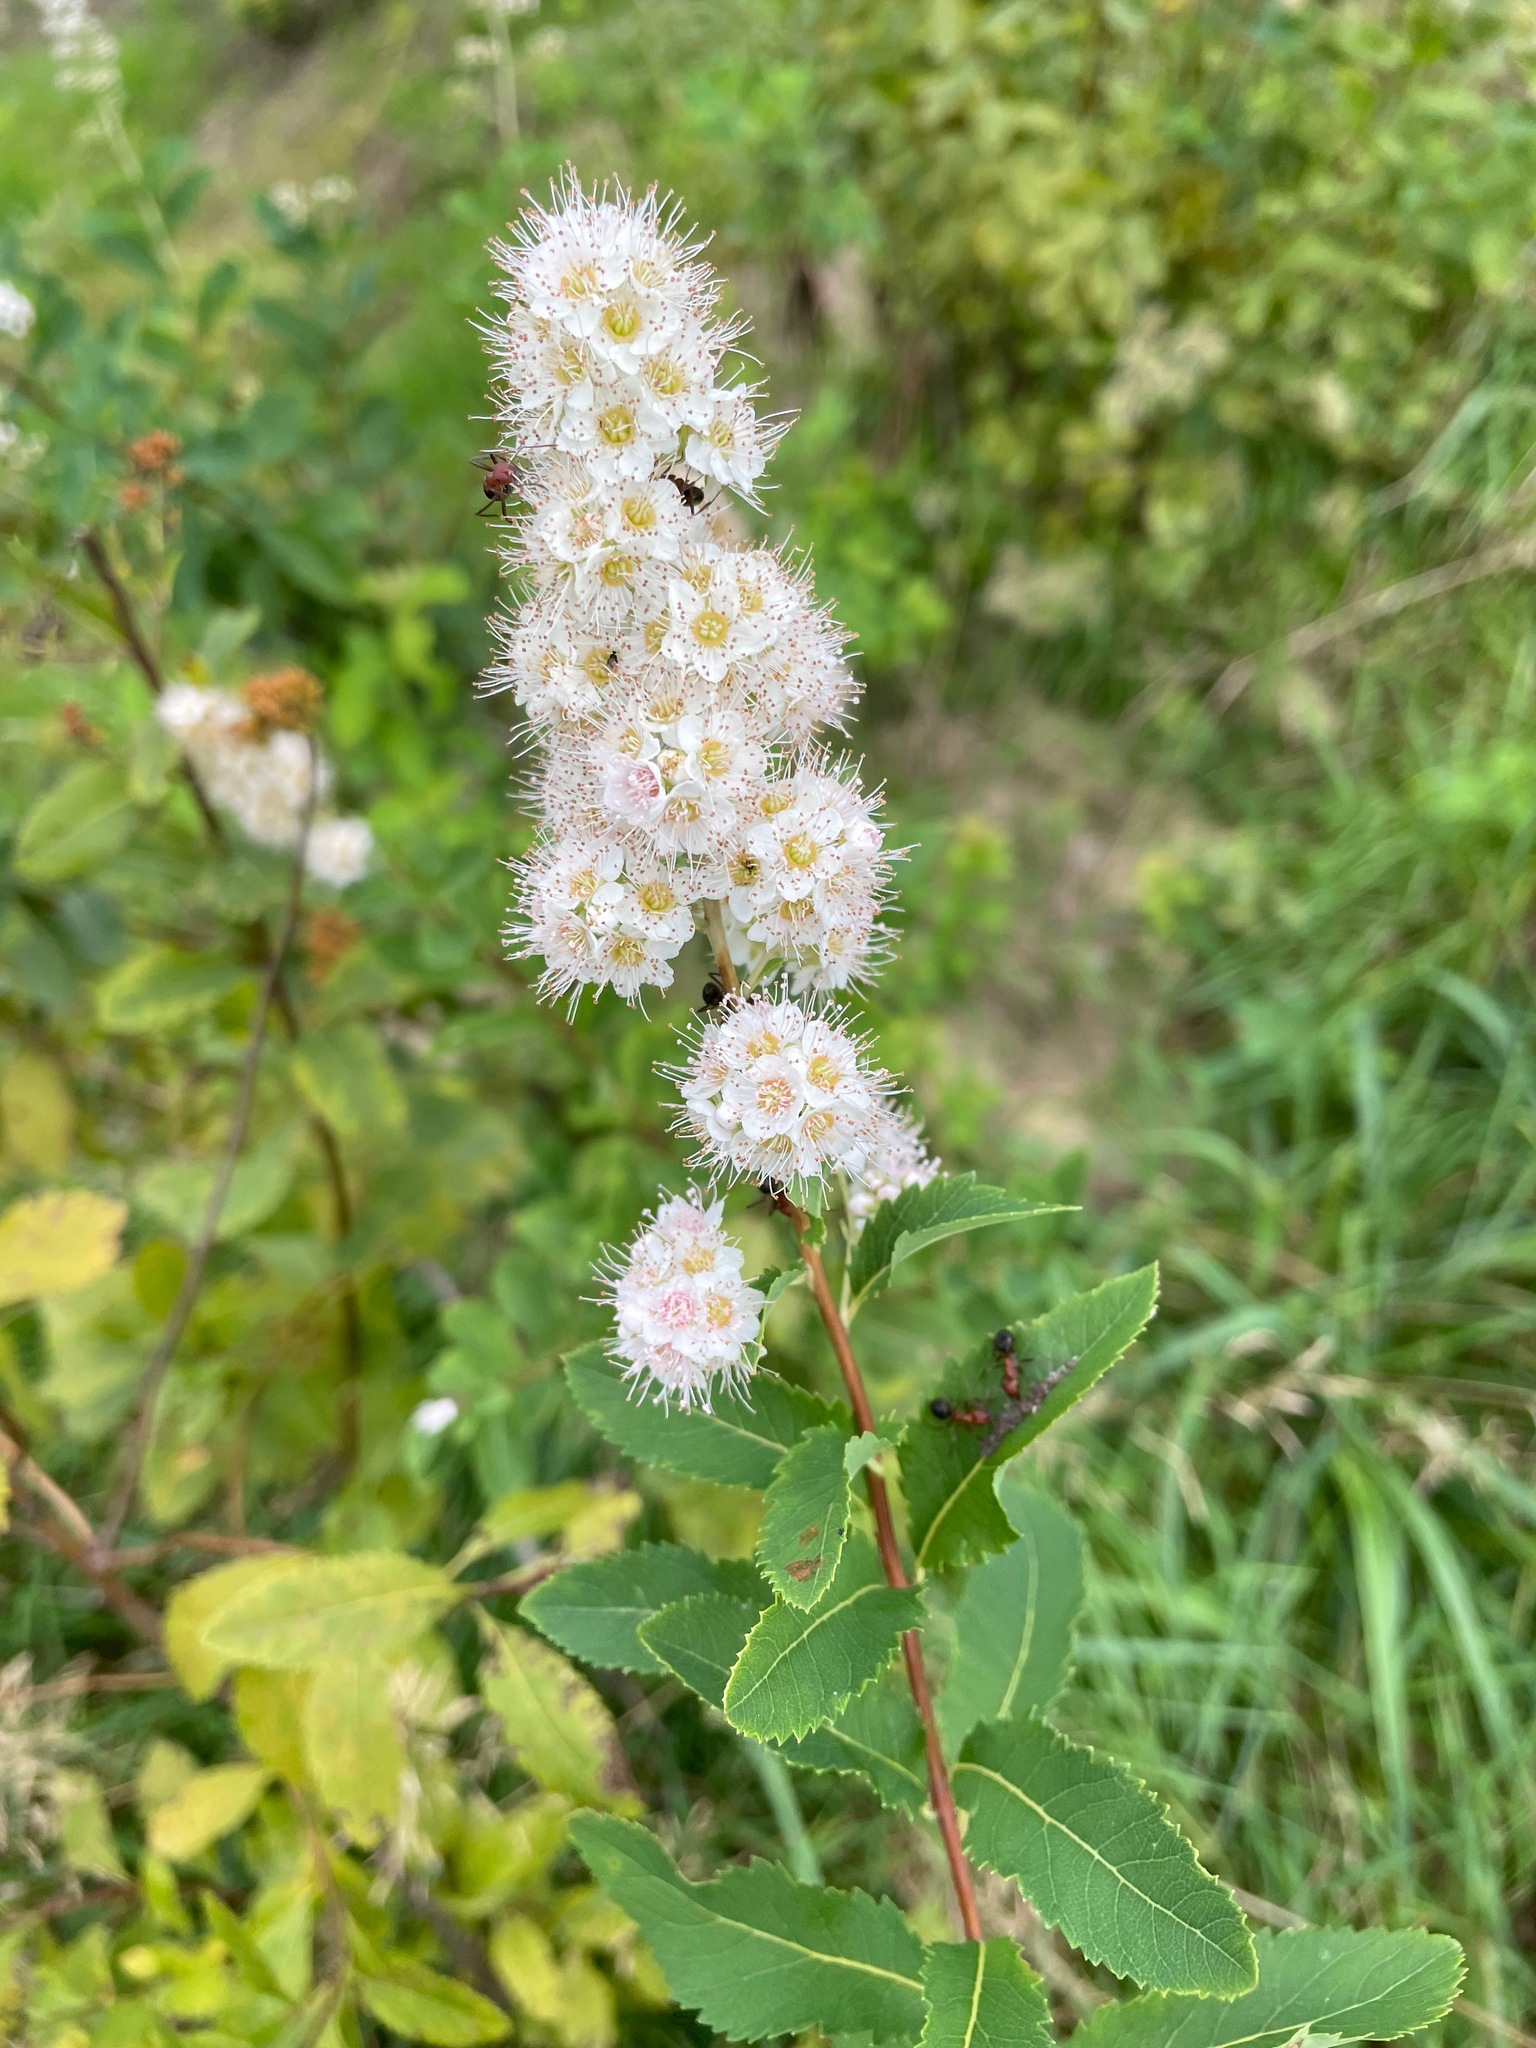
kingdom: Plantae
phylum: Tracheophyta
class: Magnoliopsida
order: Rosales
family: Rosaceae
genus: Spiraea
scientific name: Spiraea alba
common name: Pale bridewort
